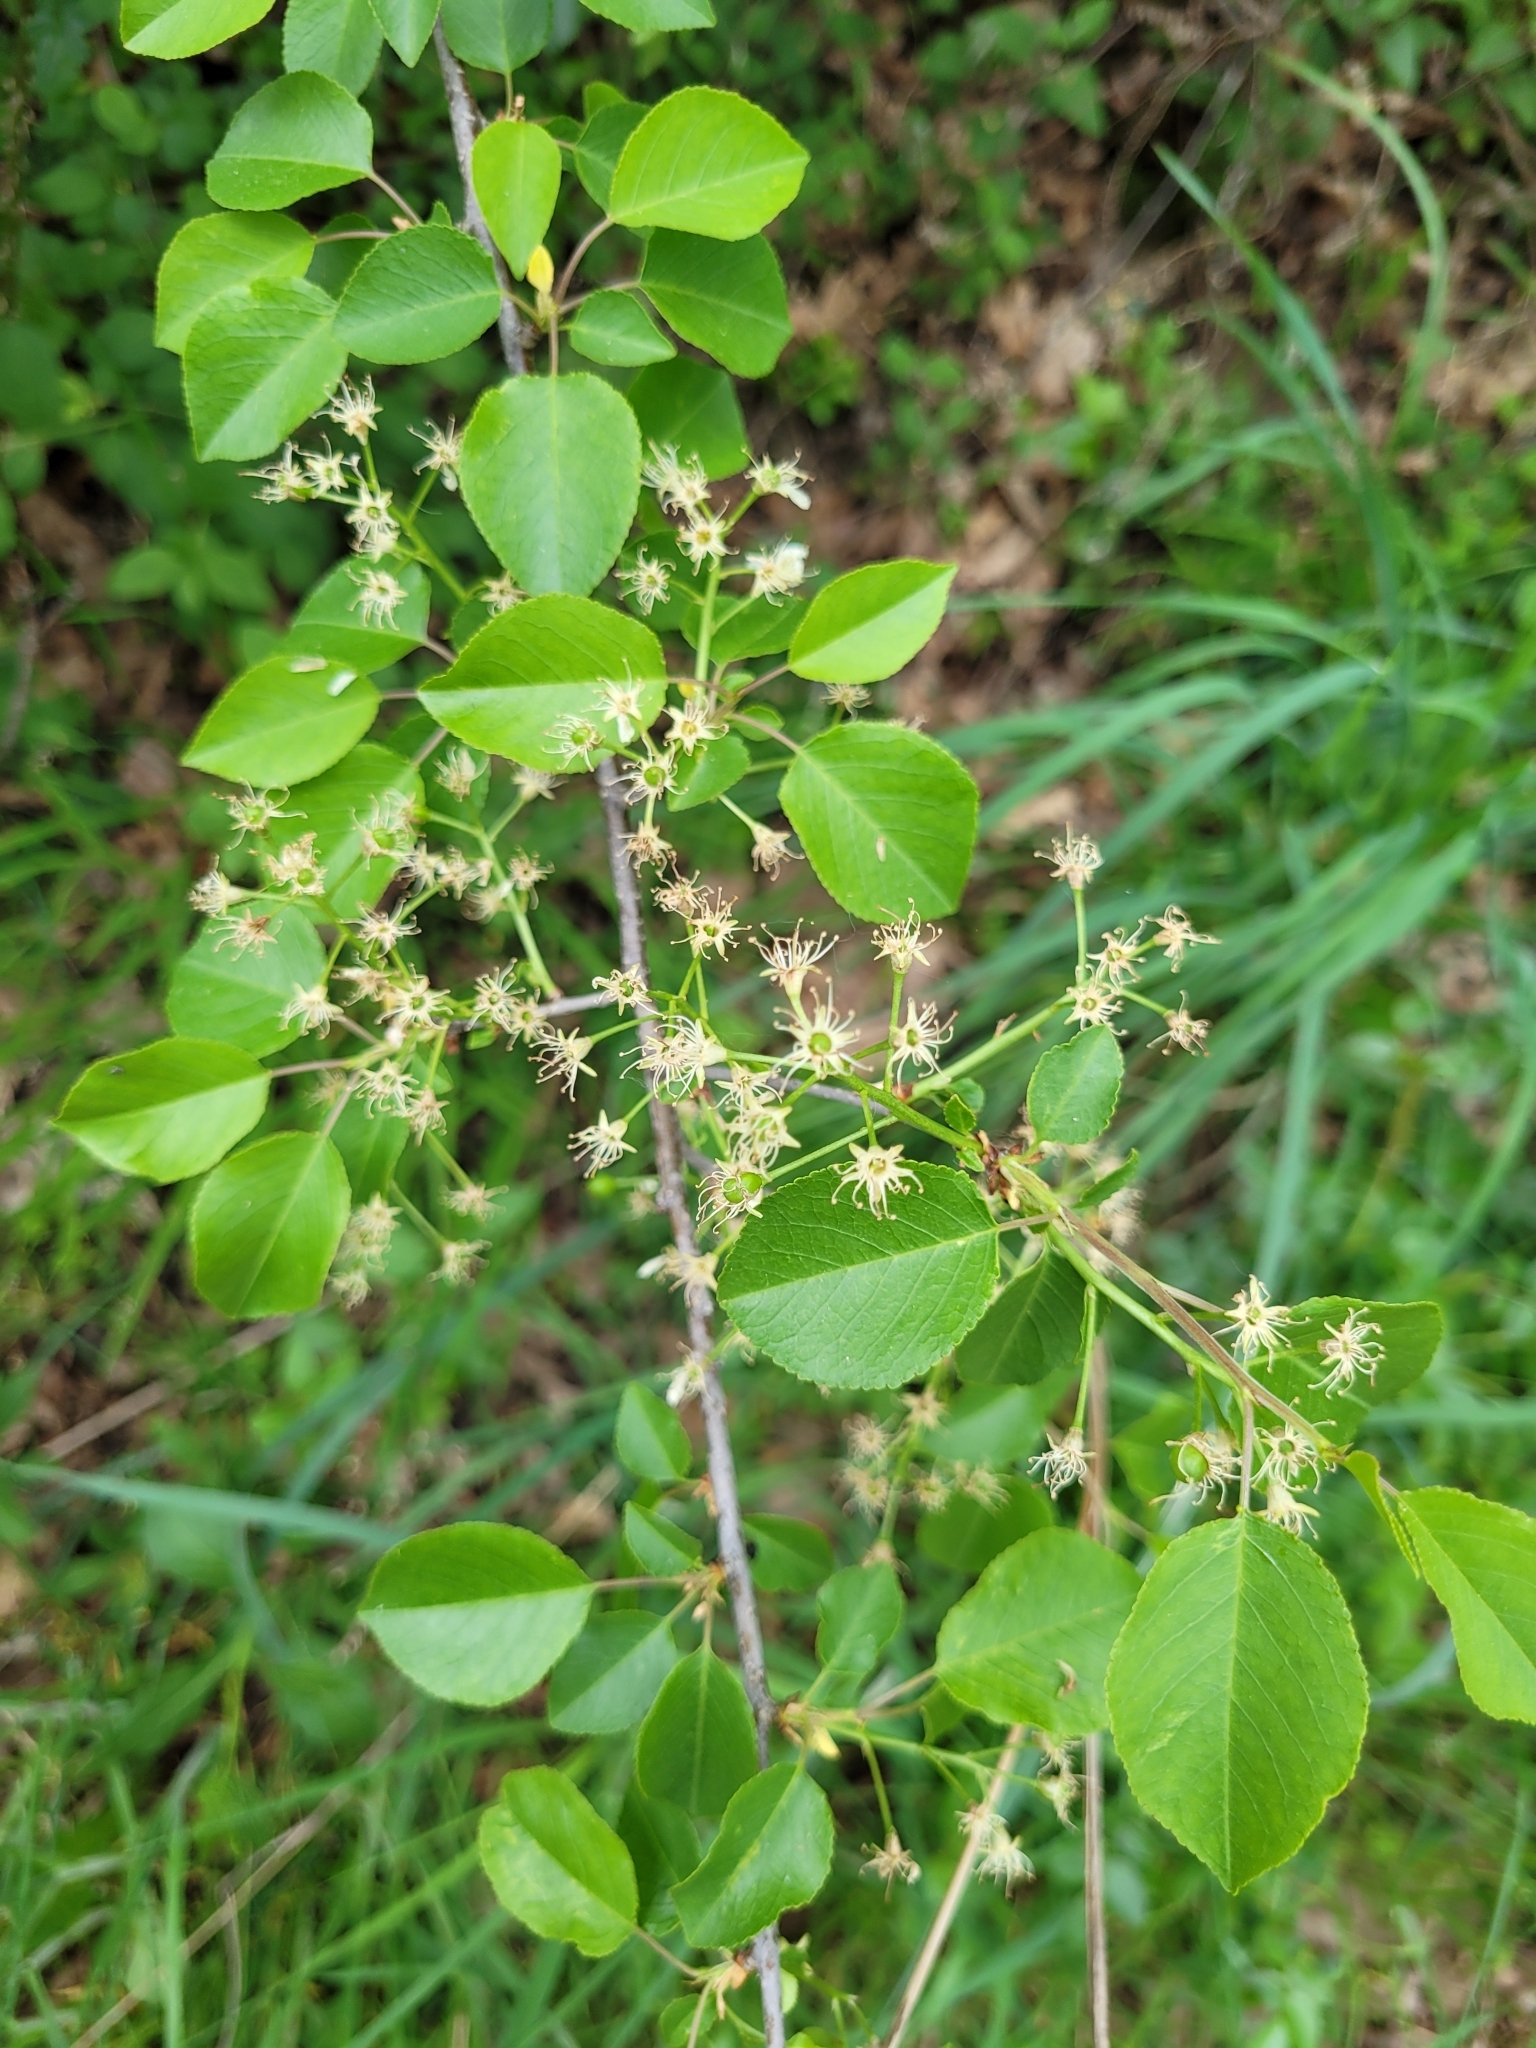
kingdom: Plantae
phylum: Tracheophyta
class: Magnoliopsida
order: Rosales
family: Rosaceae
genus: Prunus
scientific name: Prunus mahaleb
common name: Mahaleb cherry
